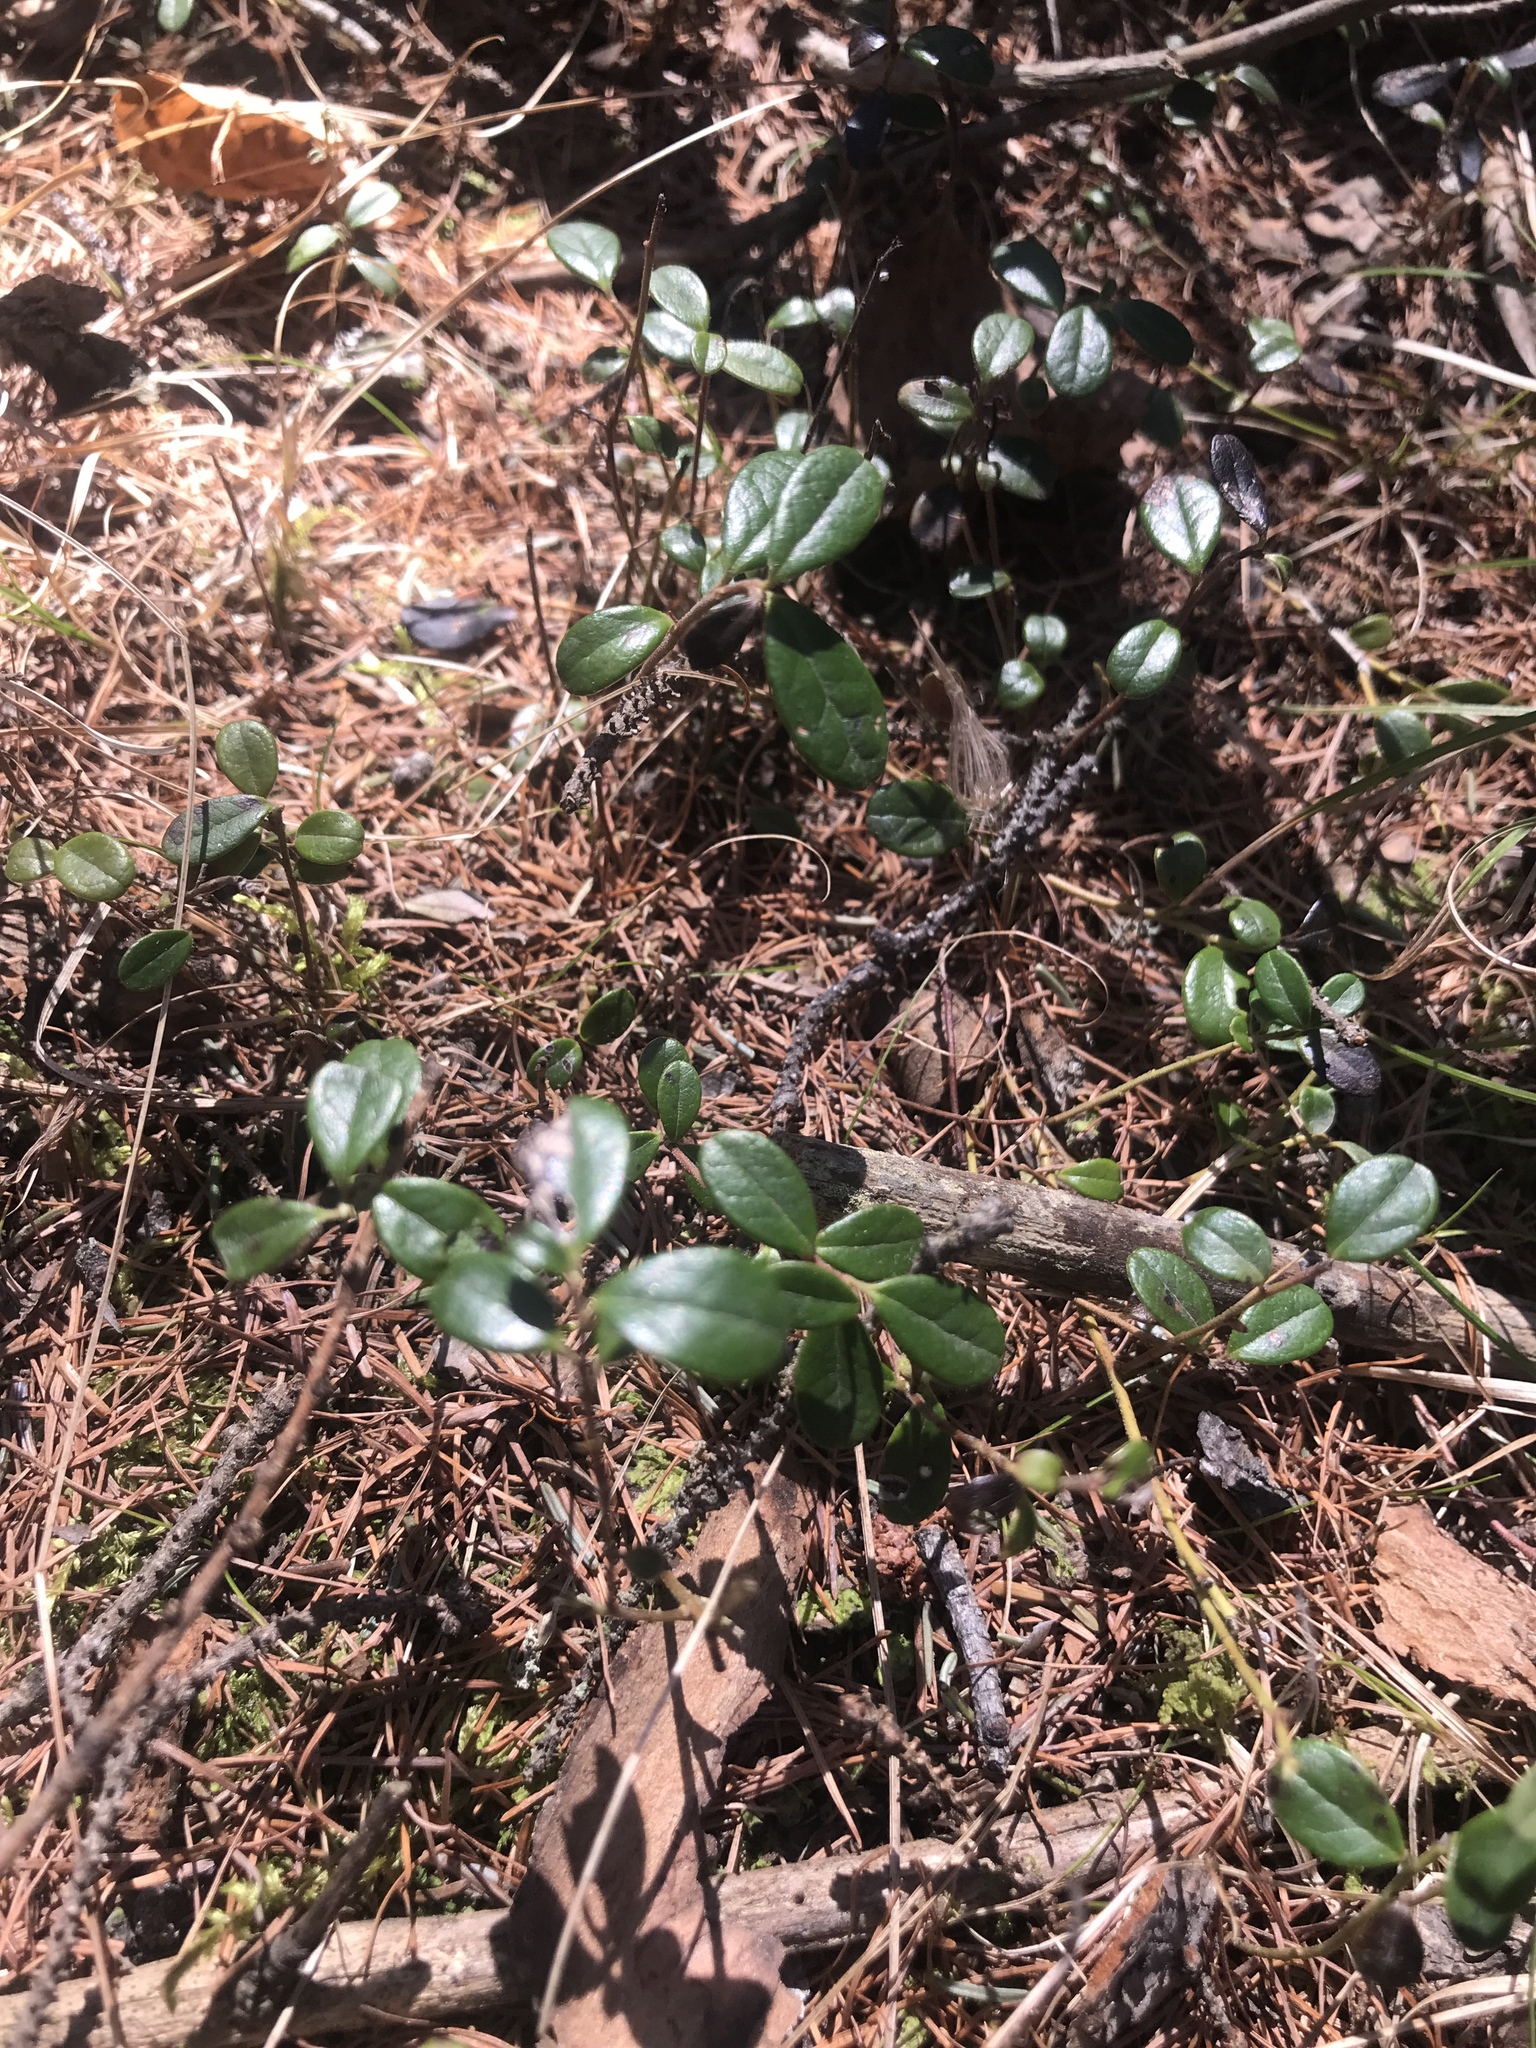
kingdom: Plantae
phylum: Tracheophyta
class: Magnoliopsida
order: Ericales
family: Ericaceae
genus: Vaccinium
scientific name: Vaccinium vitis-idaea
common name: Cowberry
